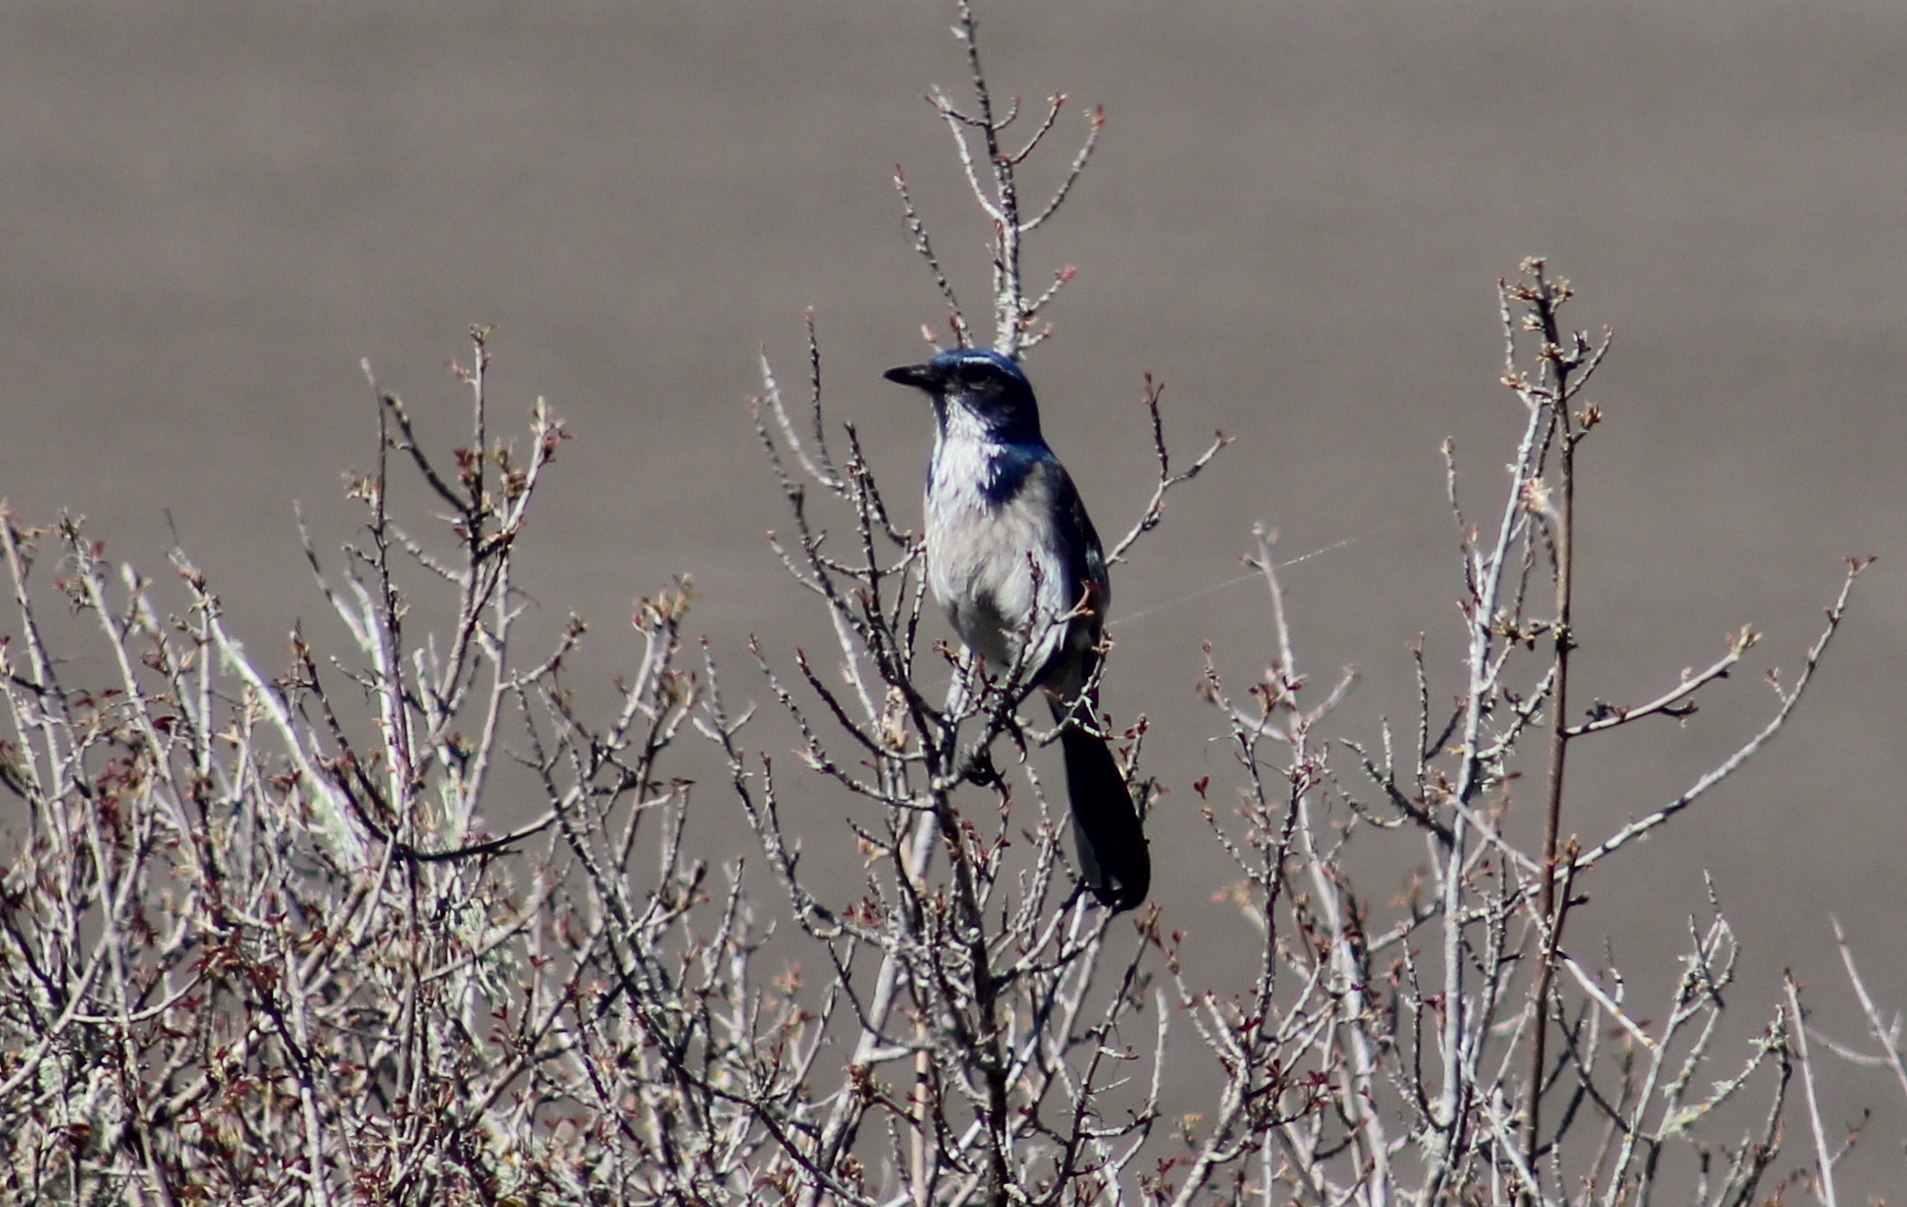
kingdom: Animalia
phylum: Chordata
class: Aves
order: Passeriformes
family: Corvidae
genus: Aphelocoma
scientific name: Aphelocoma californica
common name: California scrub-jay
